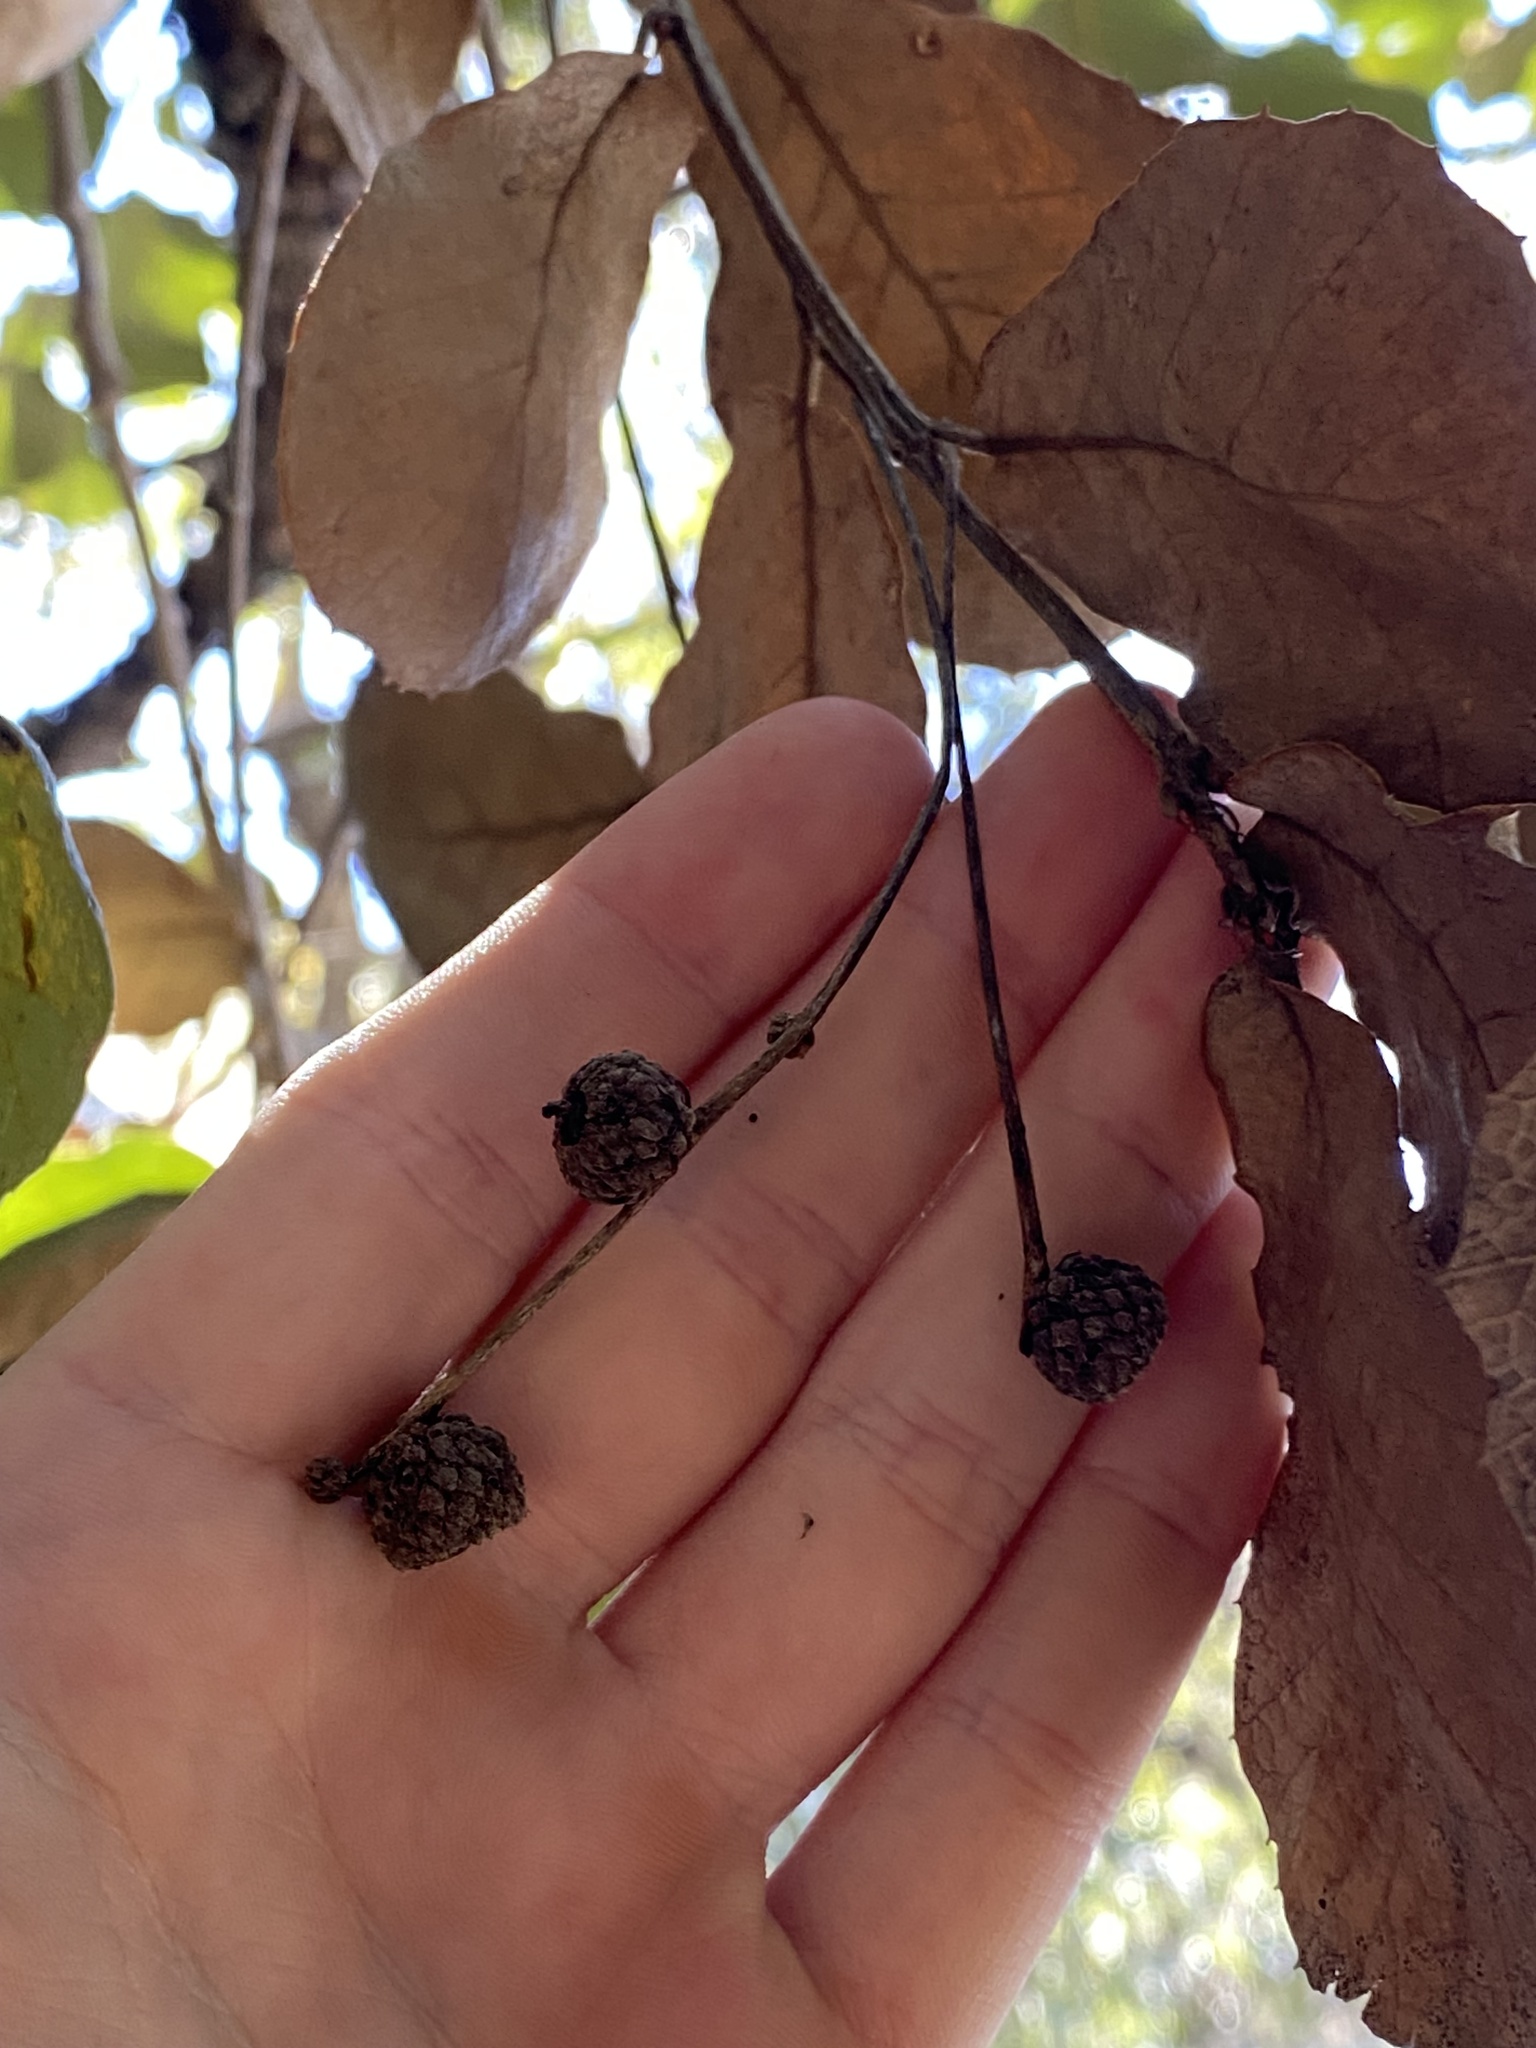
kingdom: Plantae
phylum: Tracheophyta
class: Magnoliopsida
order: Fagales
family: Fagaceae
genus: Quercus
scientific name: Quercus rugosa
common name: Netleaf oak
